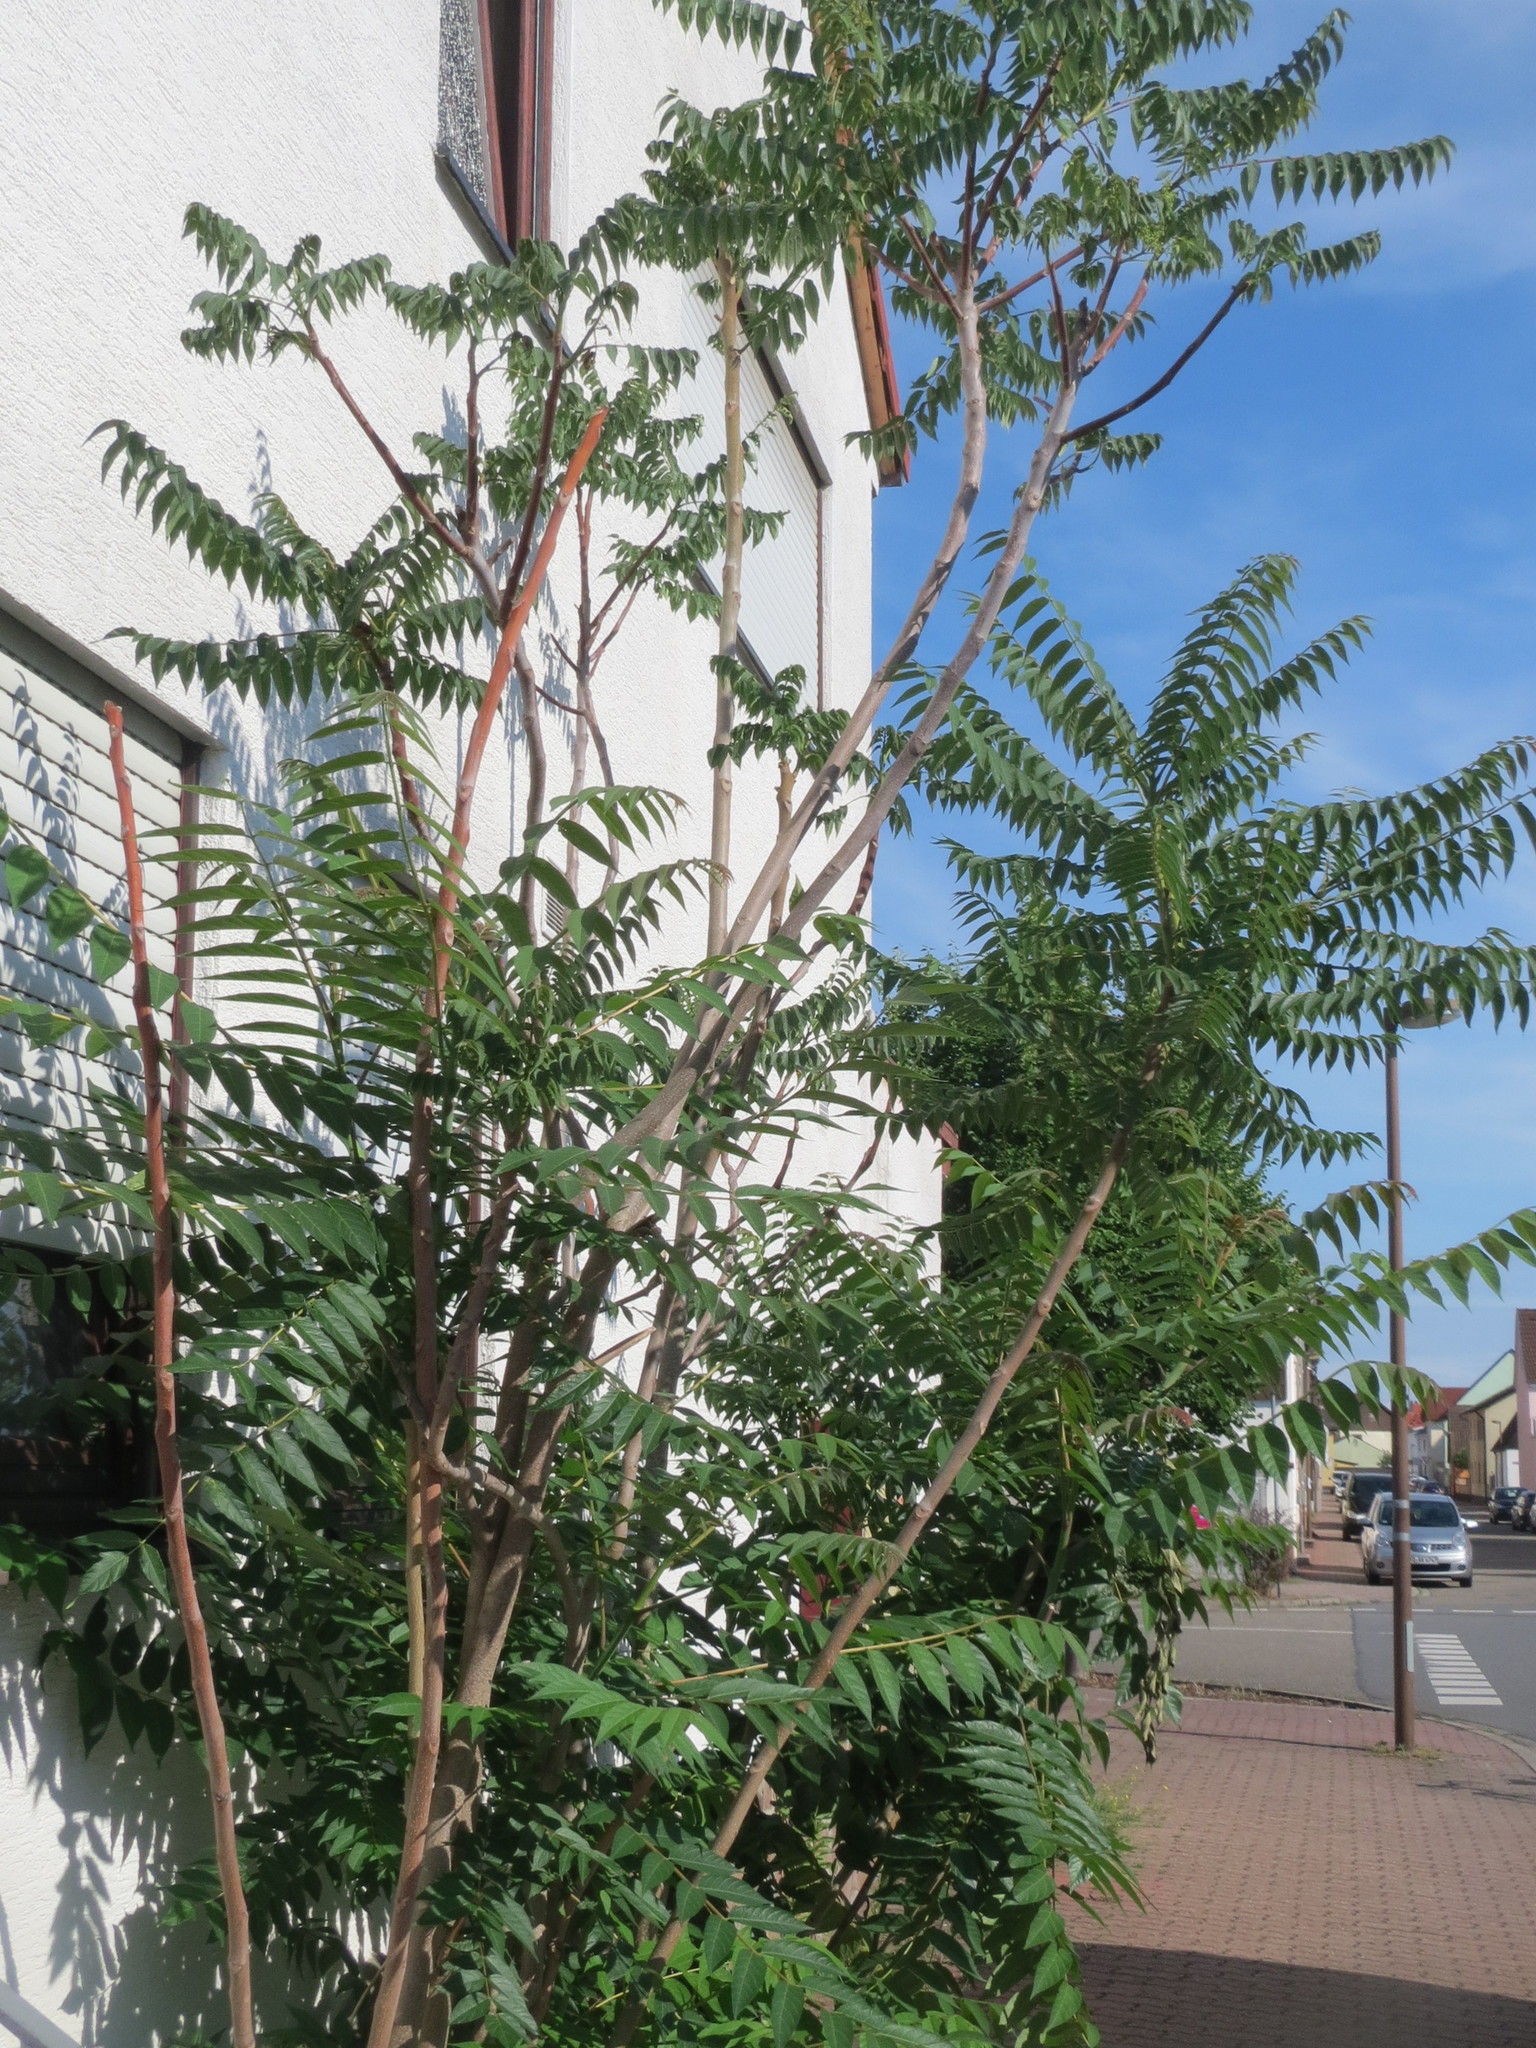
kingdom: Plantae
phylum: Tracheophyta
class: Magnoliopsida
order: Sapindales
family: Simaroubaceae
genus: Ailanthus
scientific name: Ailanthus altissima
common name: Tree-of-heaven
